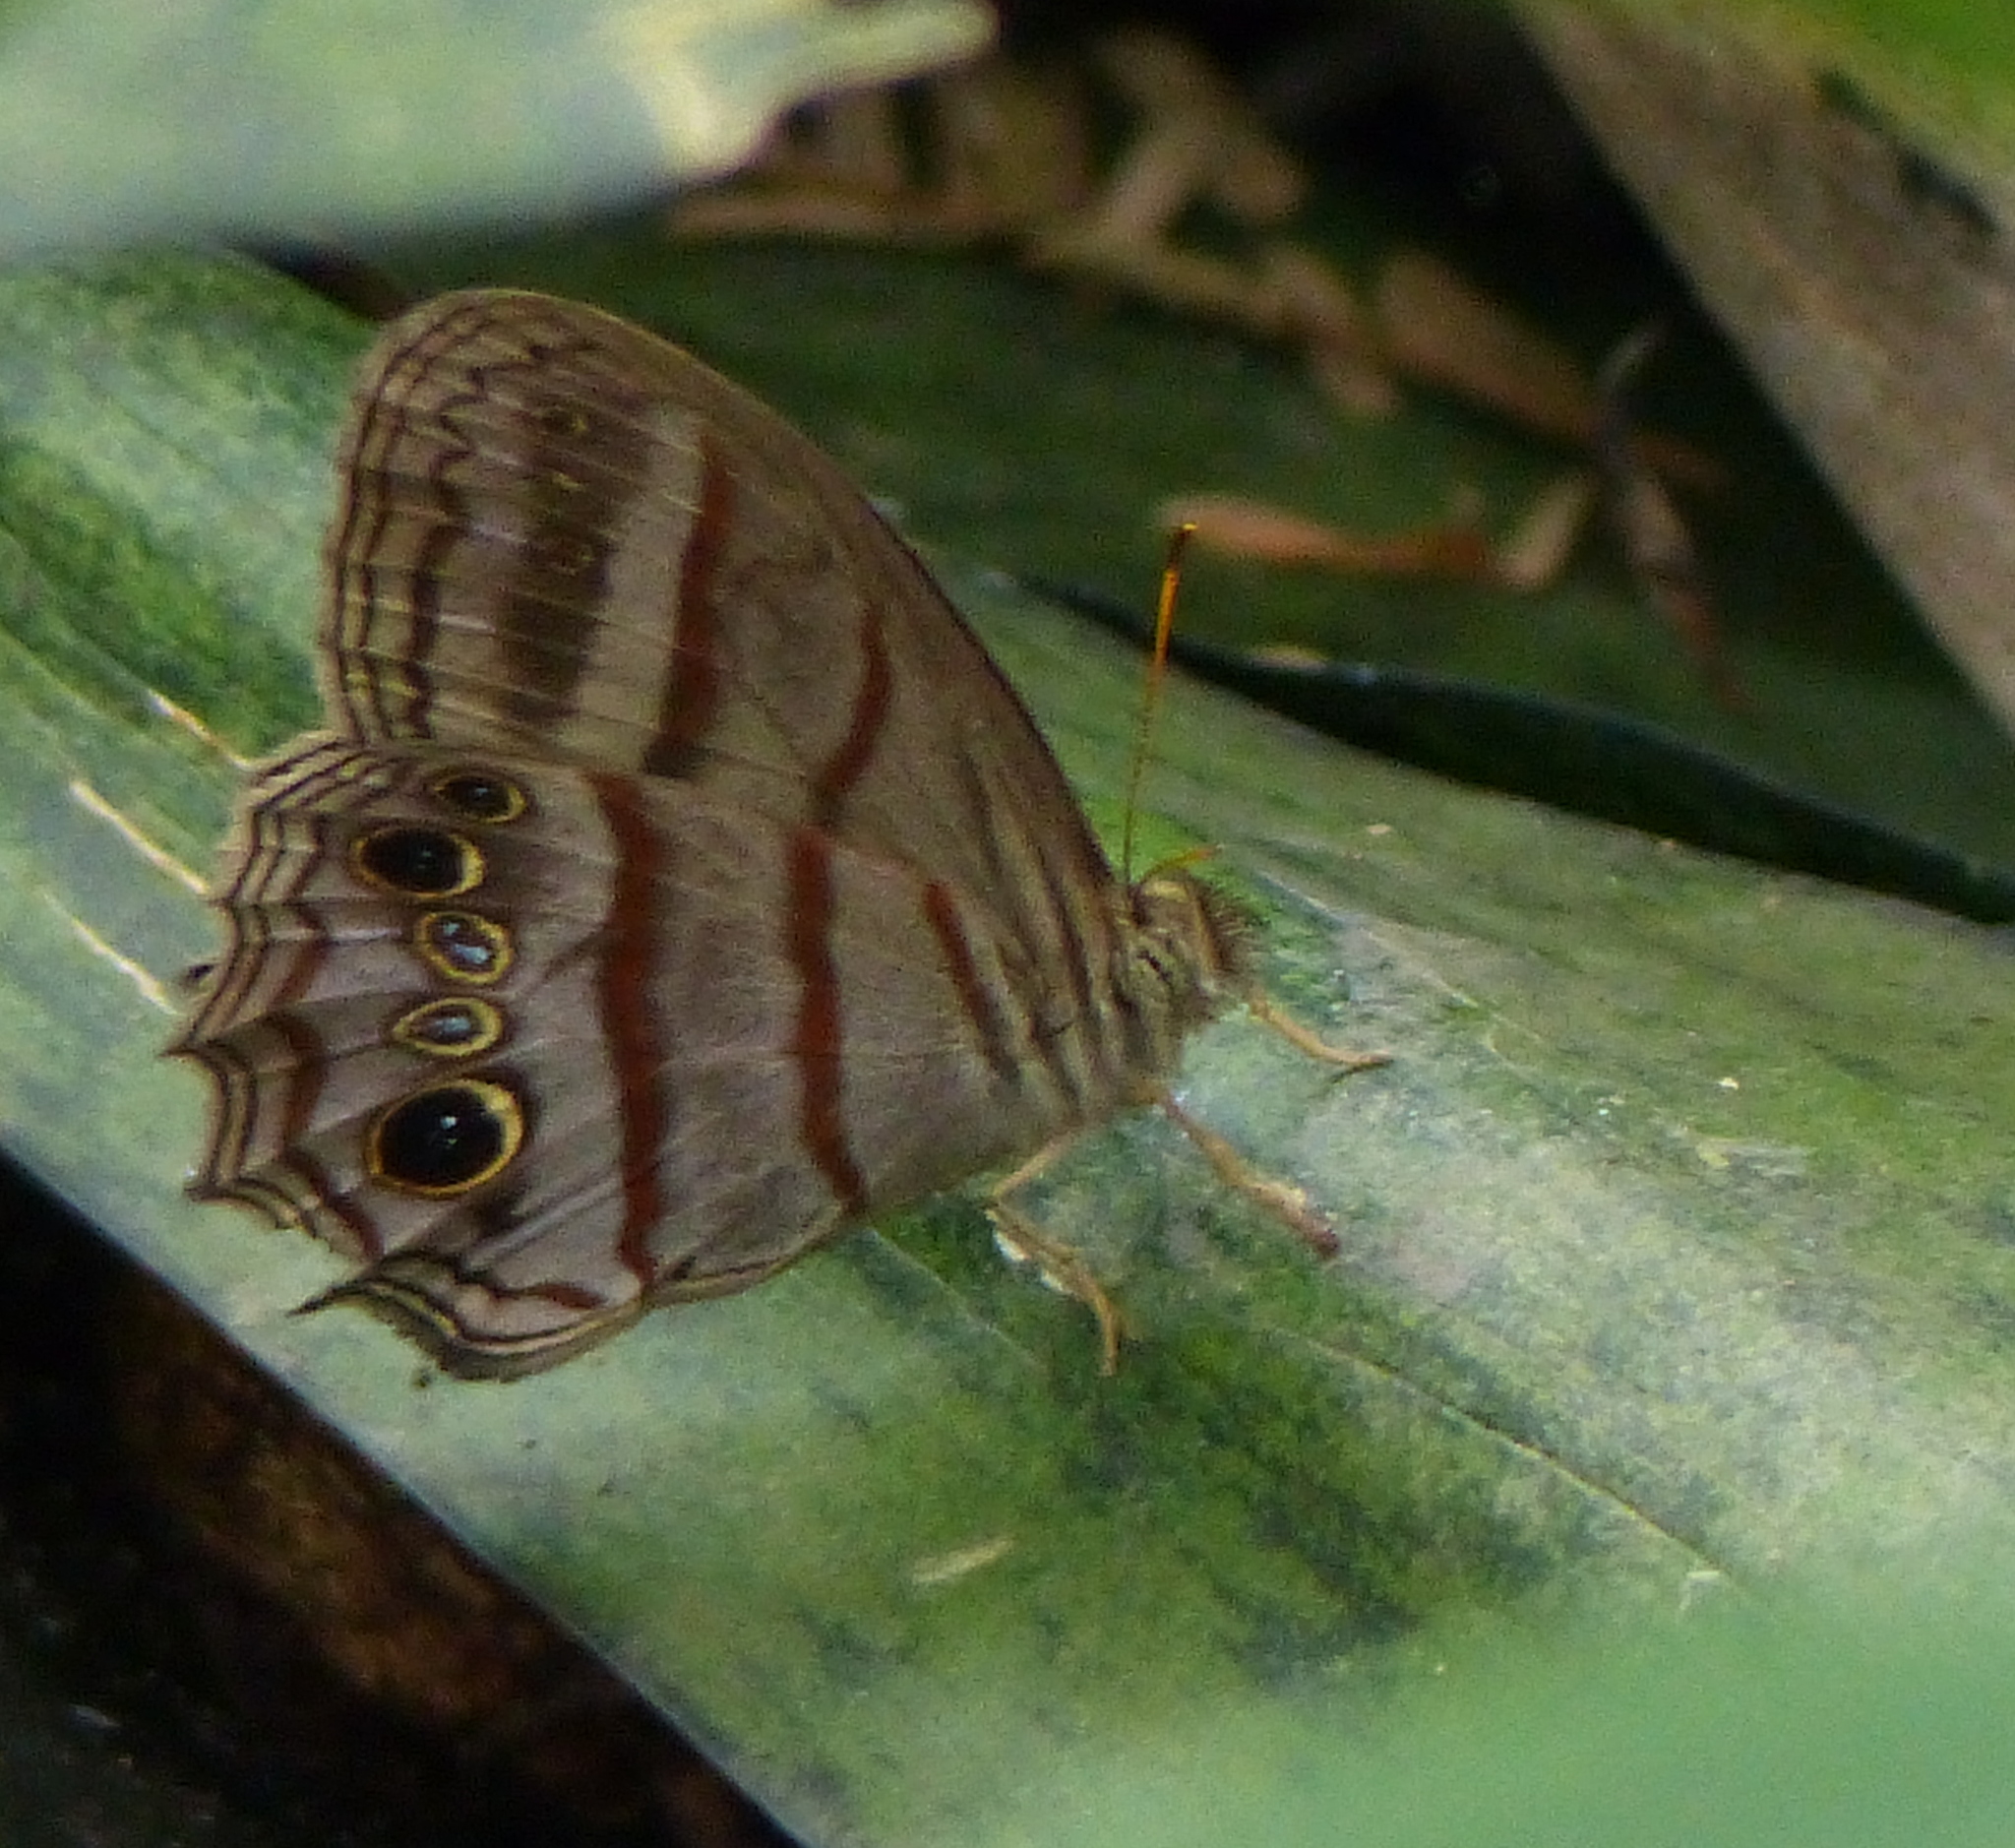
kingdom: Animalia
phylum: Arthropoda
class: Insecta
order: Lepidoptera
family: Nymphalidae
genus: Magneuptychia
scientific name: Magneuptychia libye
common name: Blue-gray satyr
